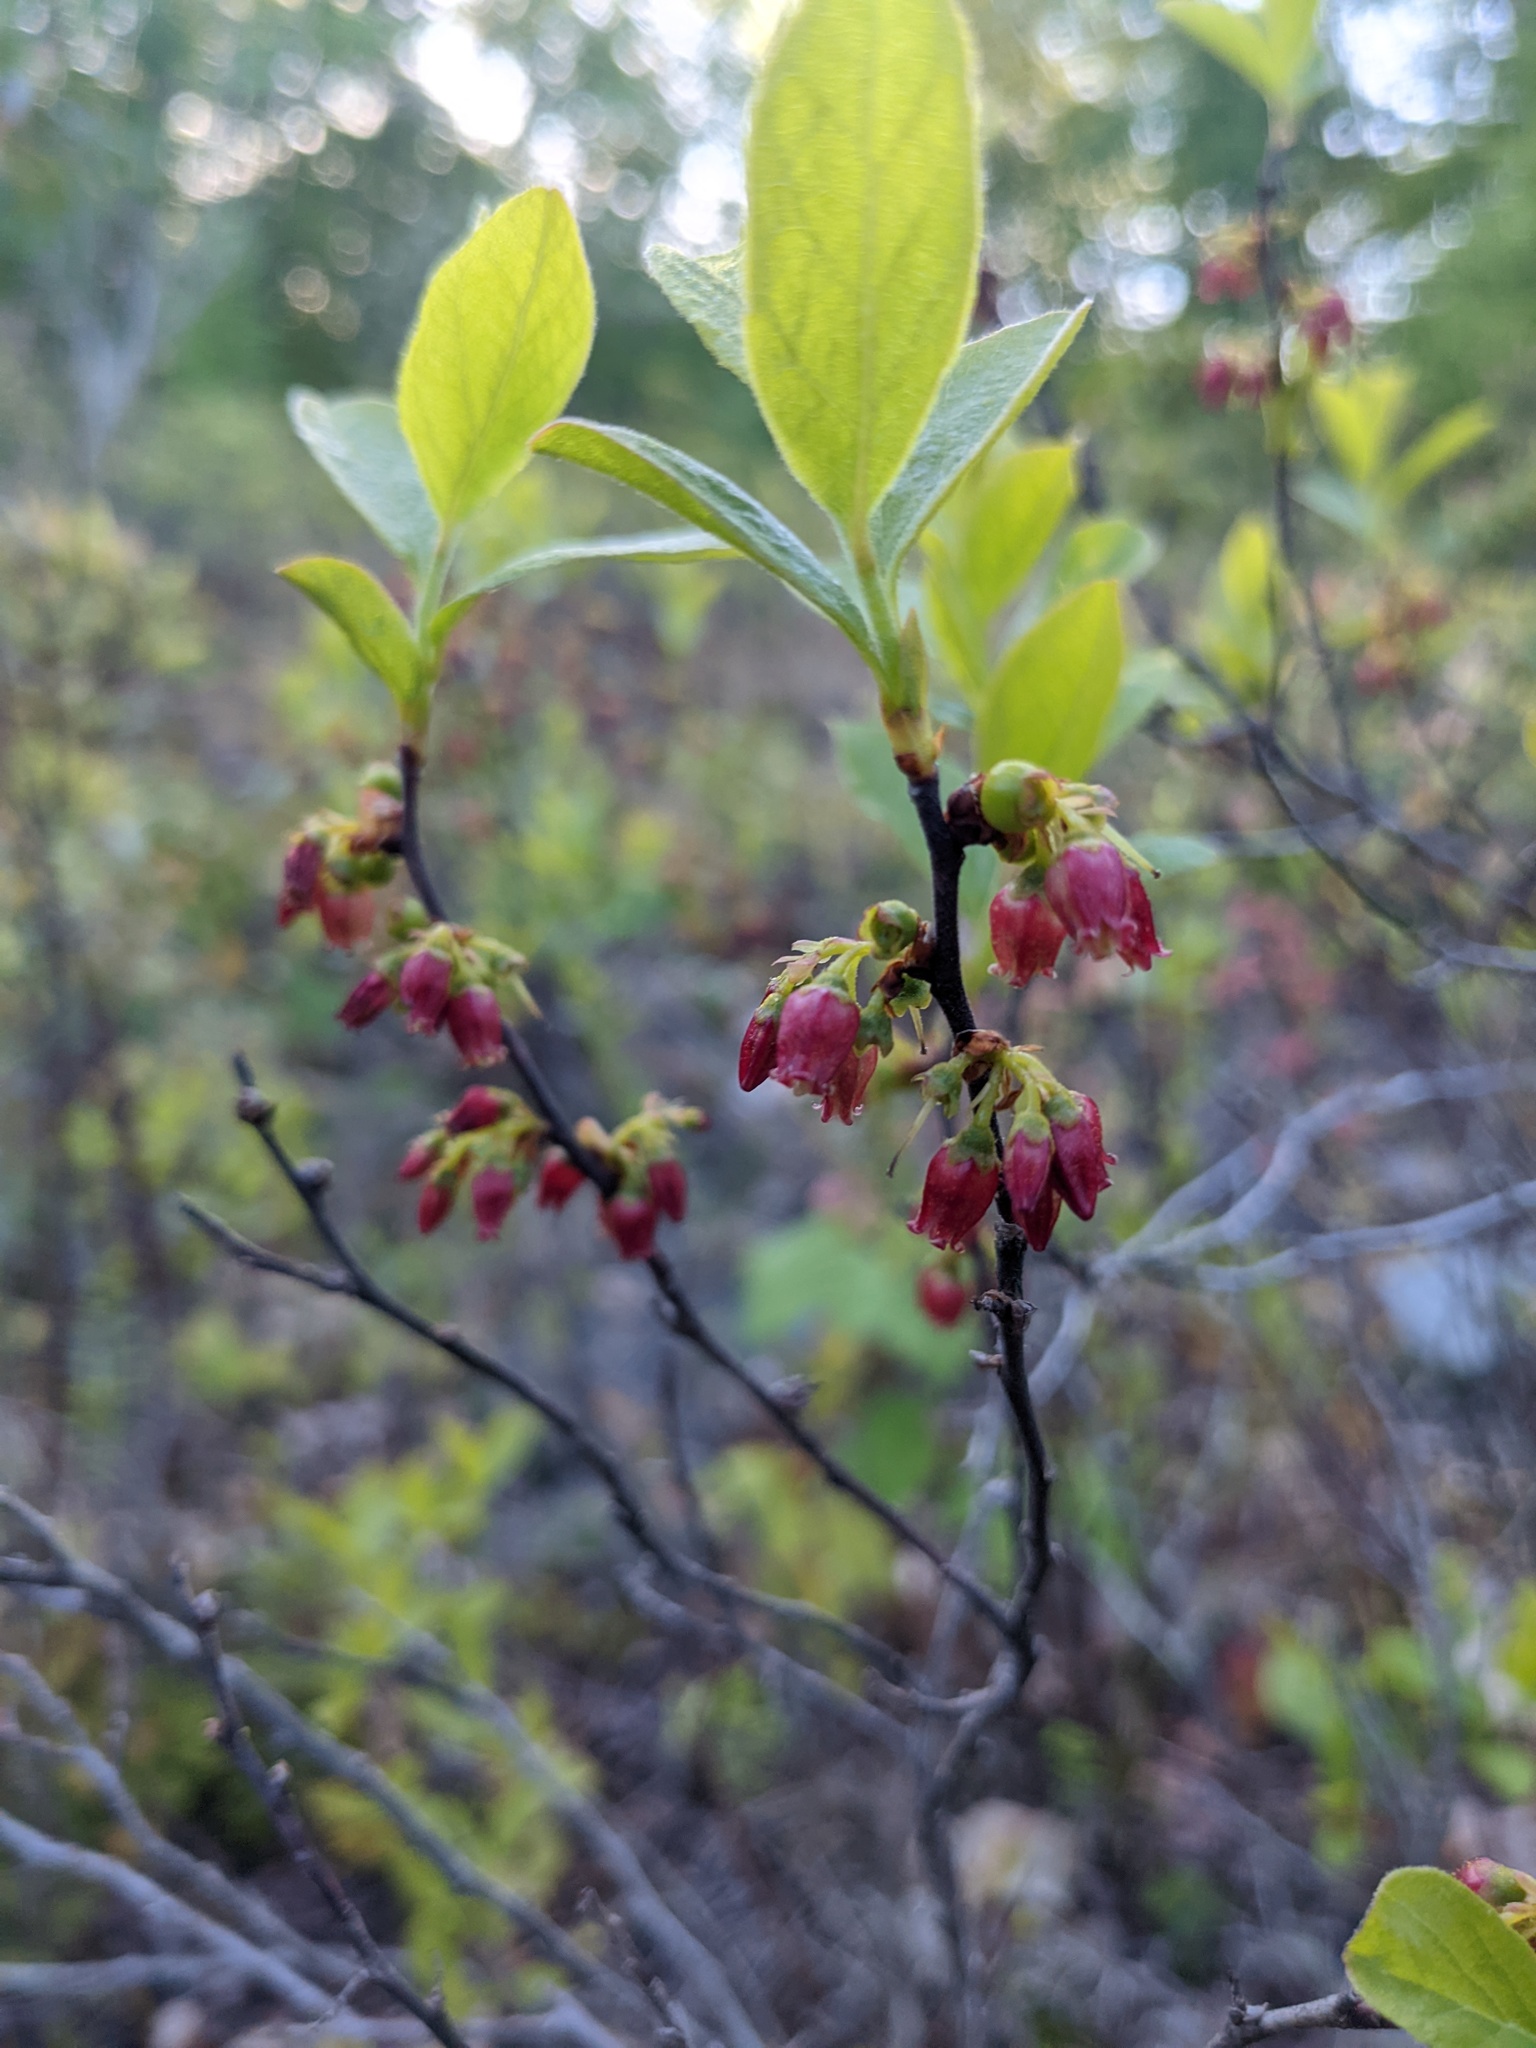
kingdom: Plantae
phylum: Tracheophyta
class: Magnoliopsida
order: Ericales
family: Ericaceae
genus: Gaylussacia
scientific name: Gaylussacia baccata
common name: Black huckleberry
